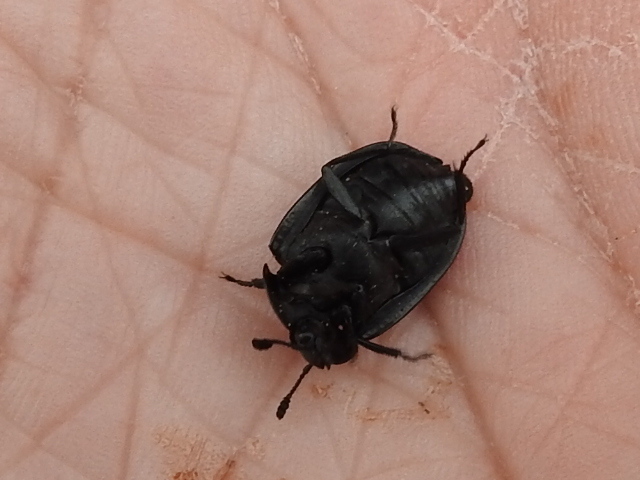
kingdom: Animalia
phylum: Arthropoda
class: Insecta
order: Coleoptera
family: Staphylinidae
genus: Oiceoptoma
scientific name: Oiceoptoma inaequale
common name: Ridged carrion beetle
